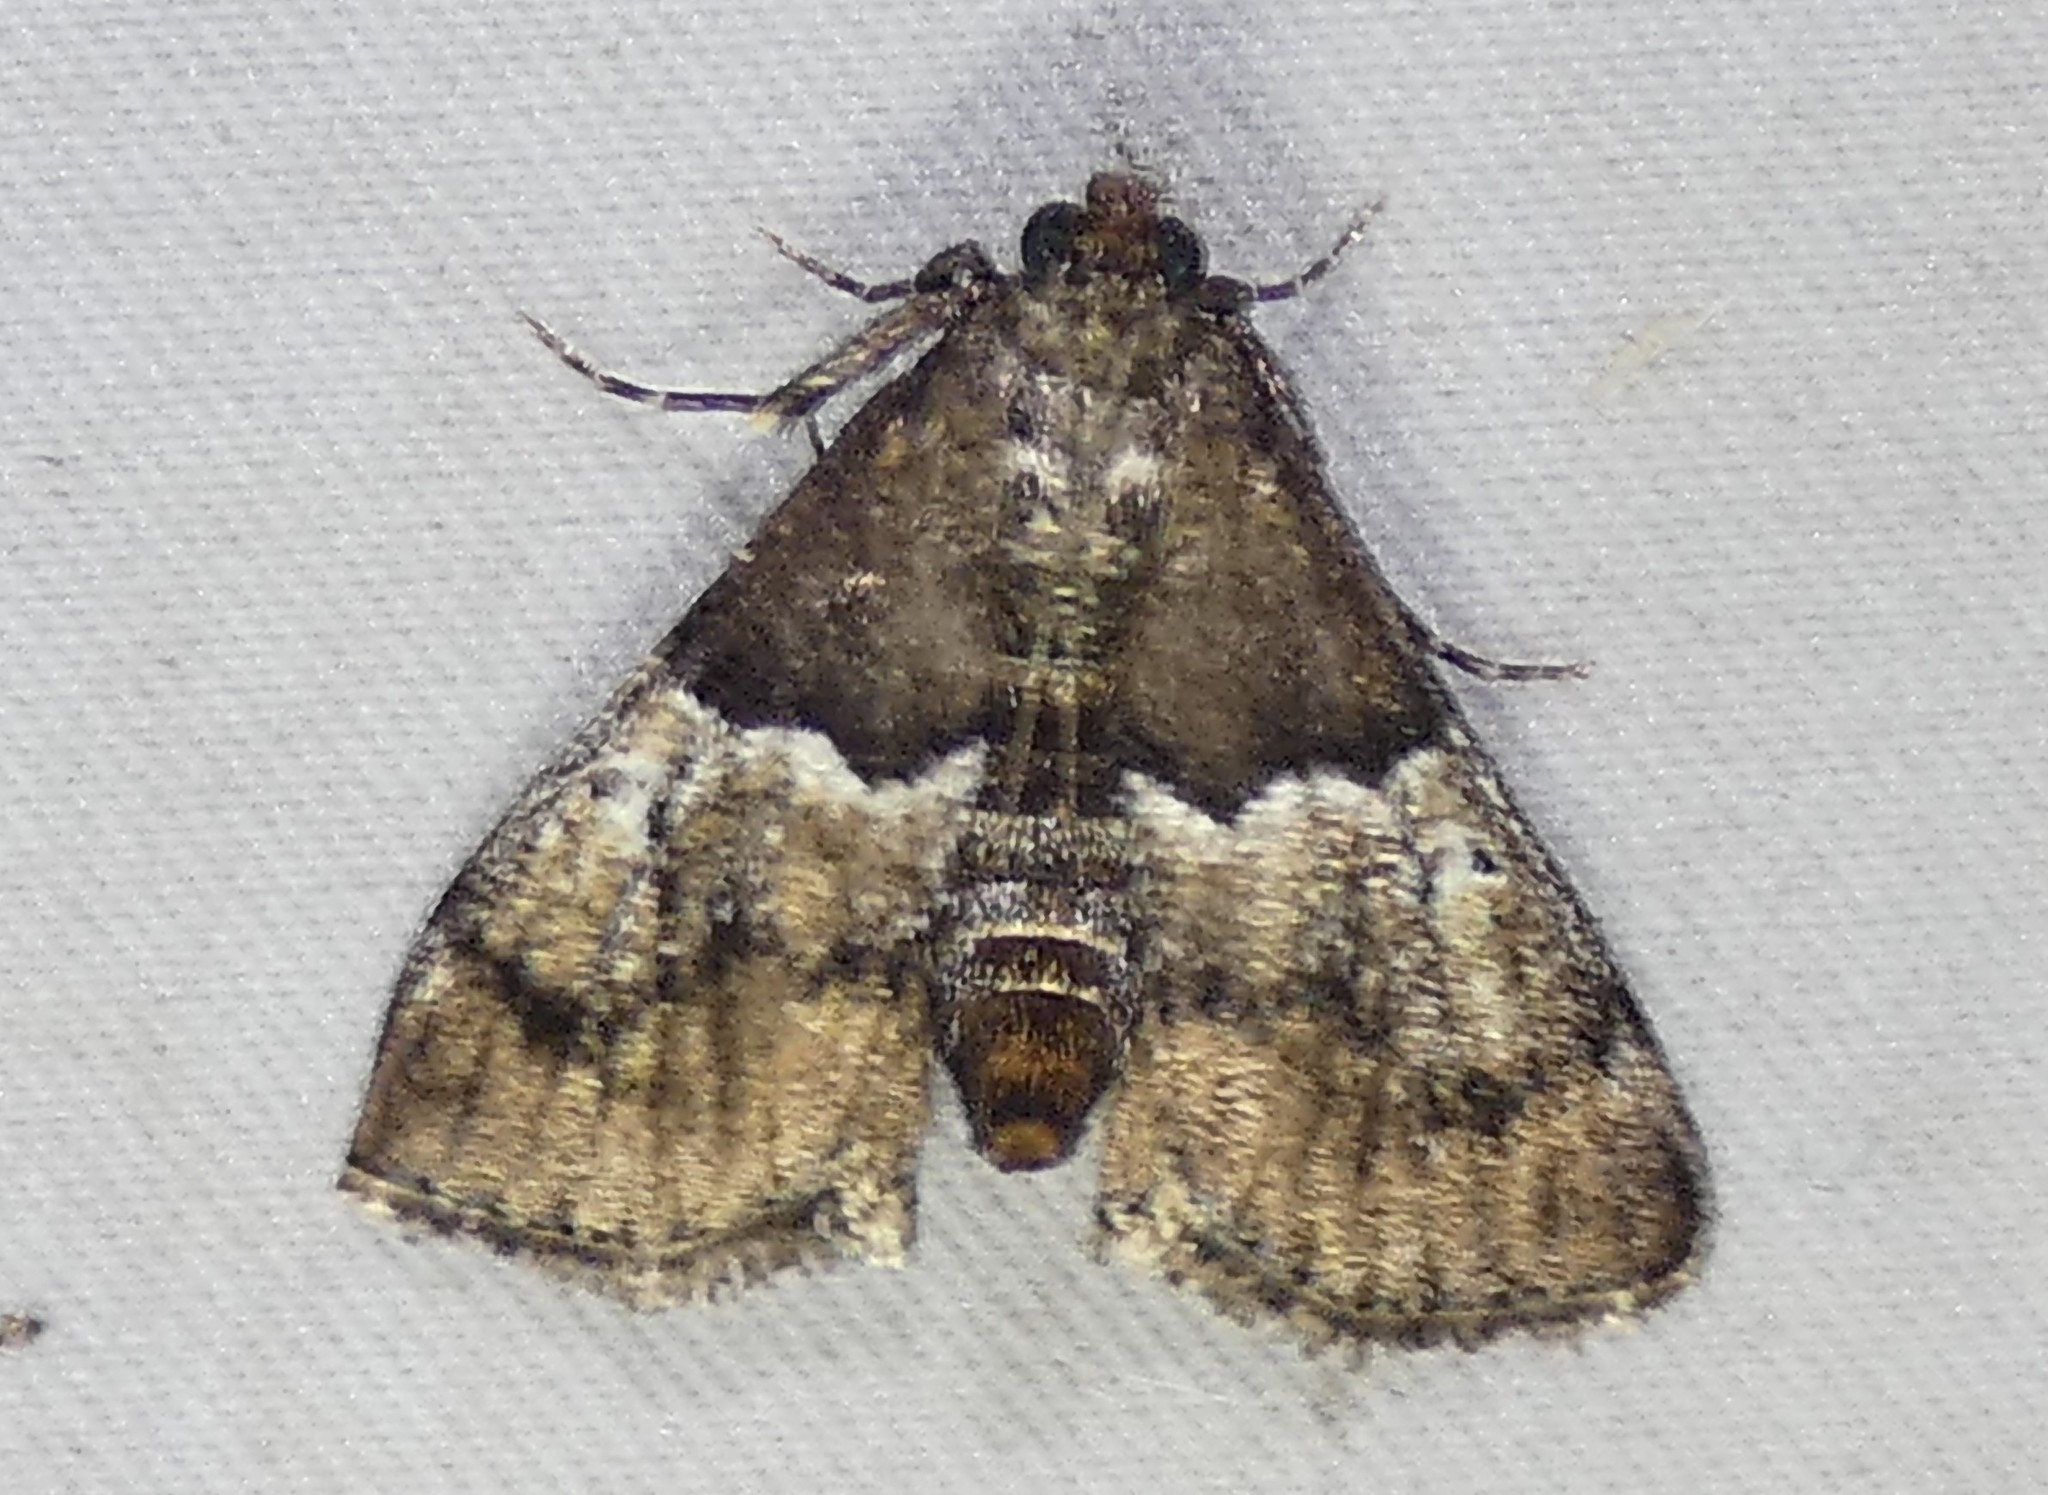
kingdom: Animalia
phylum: Arthropoda
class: Insecta
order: Lepidoptera
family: Pyralidae
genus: Macalla
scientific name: Macalla zelleri
